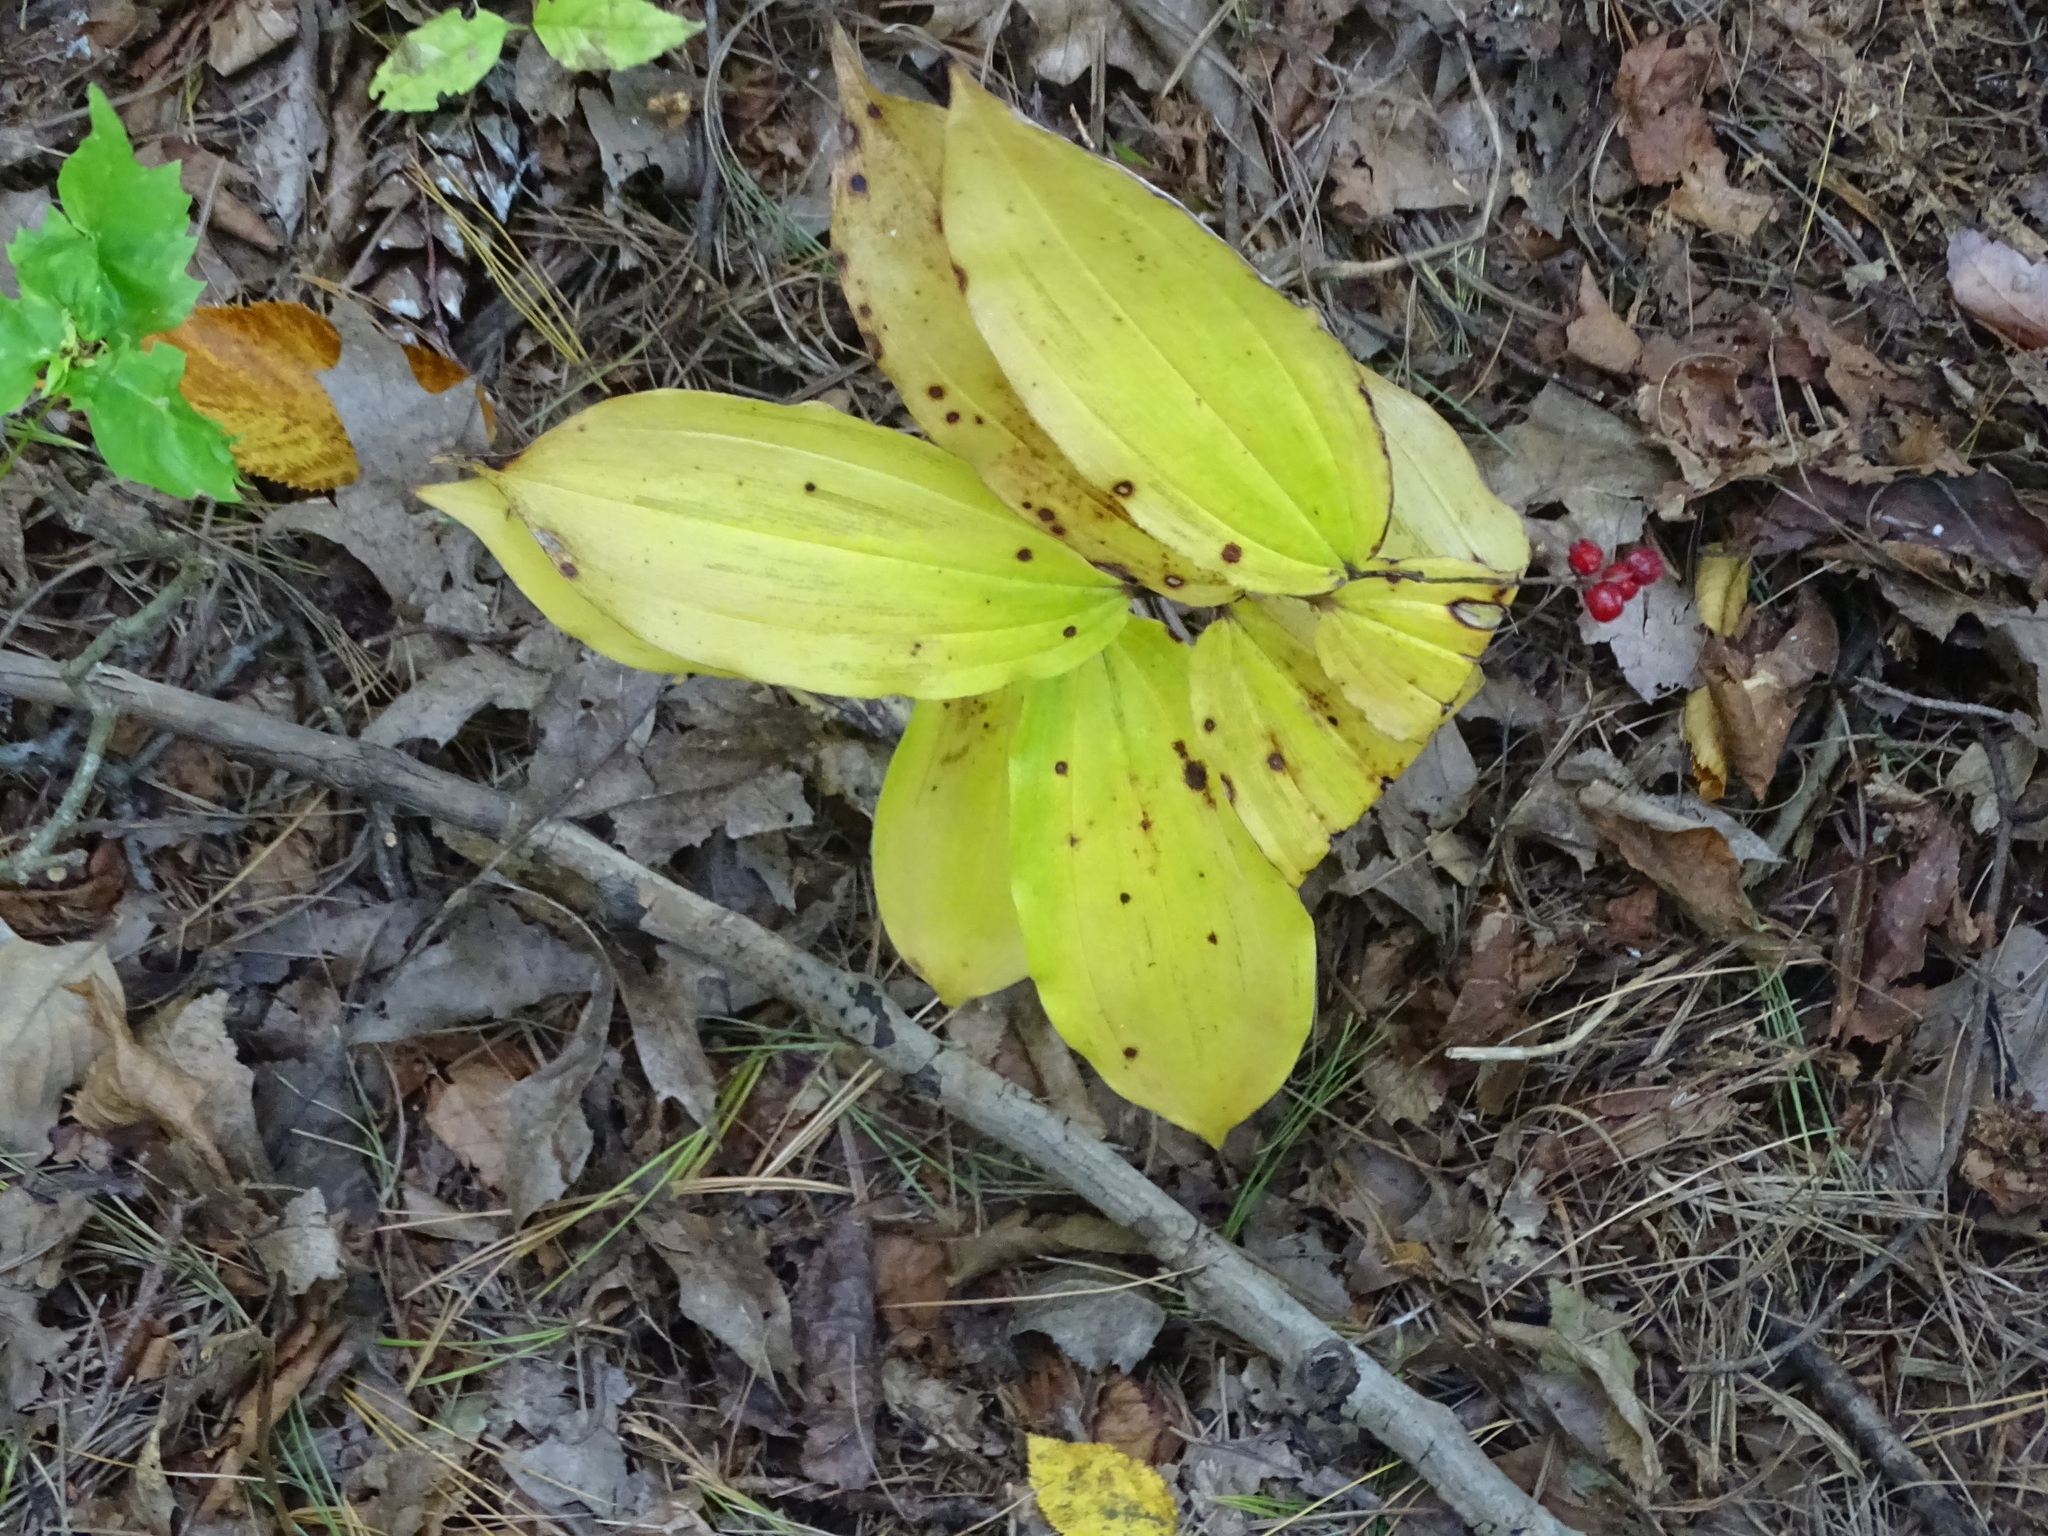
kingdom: Plantae
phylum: Tracheophyta
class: Liliopsida
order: Asparagales
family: Asparagaceae
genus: Maianthemum
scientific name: Maianthemum racemosum
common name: False spikenard
